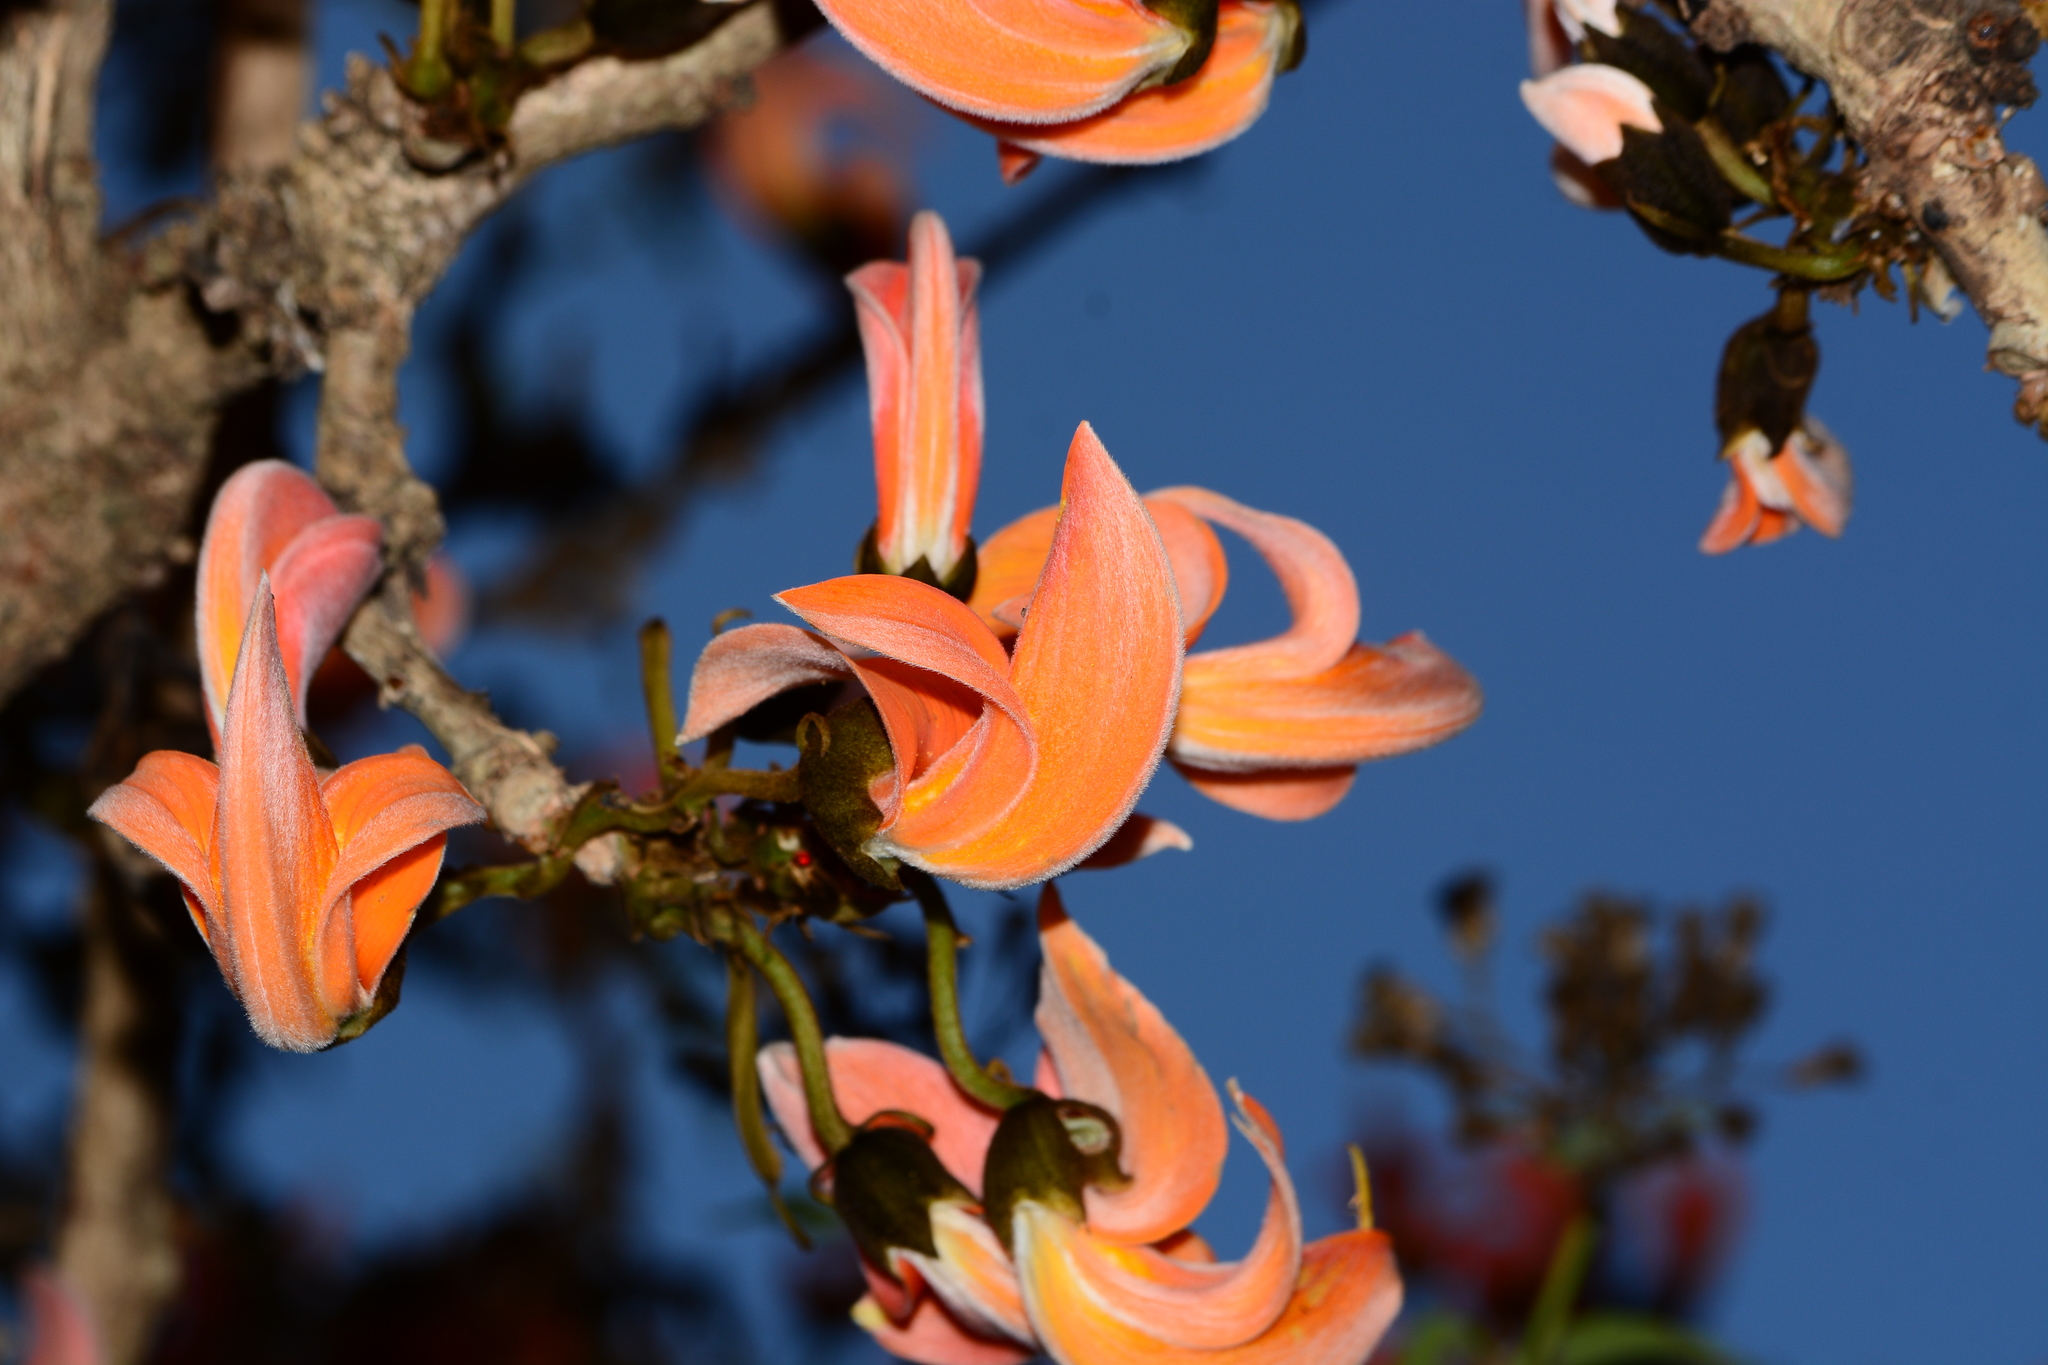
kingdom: Plantae
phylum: Tracheophyta
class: Magnoliopsida
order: Fabales
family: Fabaceae
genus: Butea
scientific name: Butea monosperma
